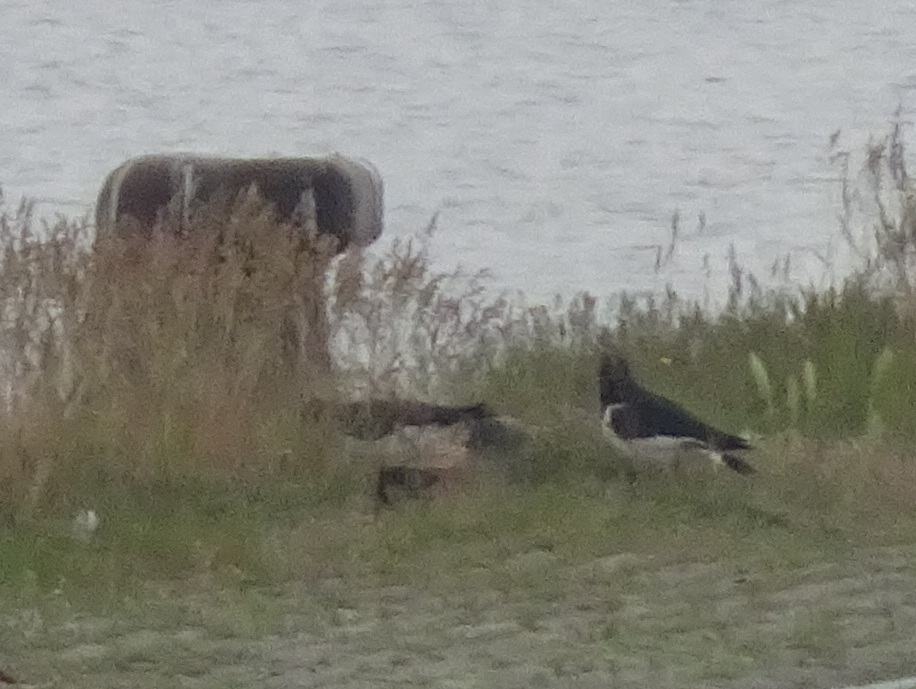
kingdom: Animalia
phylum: Chordata
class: Aves
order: Charadriiformes
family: Haematopodidae
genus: Haematopus
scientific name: Haematopus ostralegus
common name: Eurasian oystercatcher
